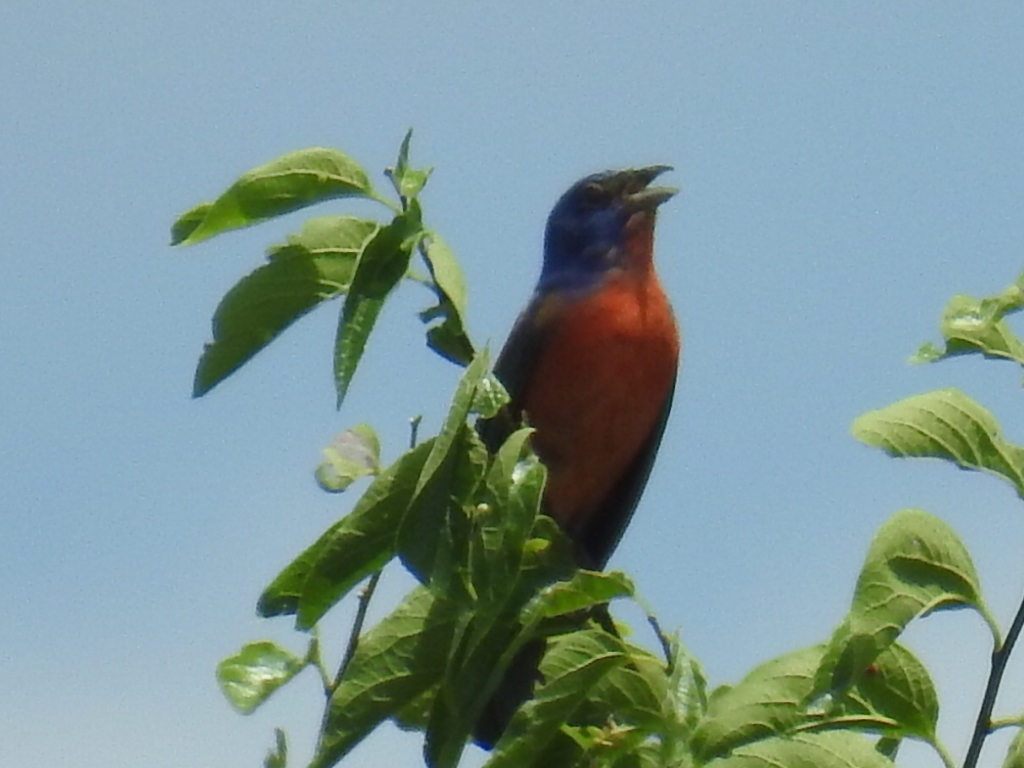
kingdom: Animalia
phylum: Chordata
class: Aves
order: Passeriformes
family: Cardinalidae
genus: Passerina
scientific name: Passerina ciris
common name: Painted bunting
